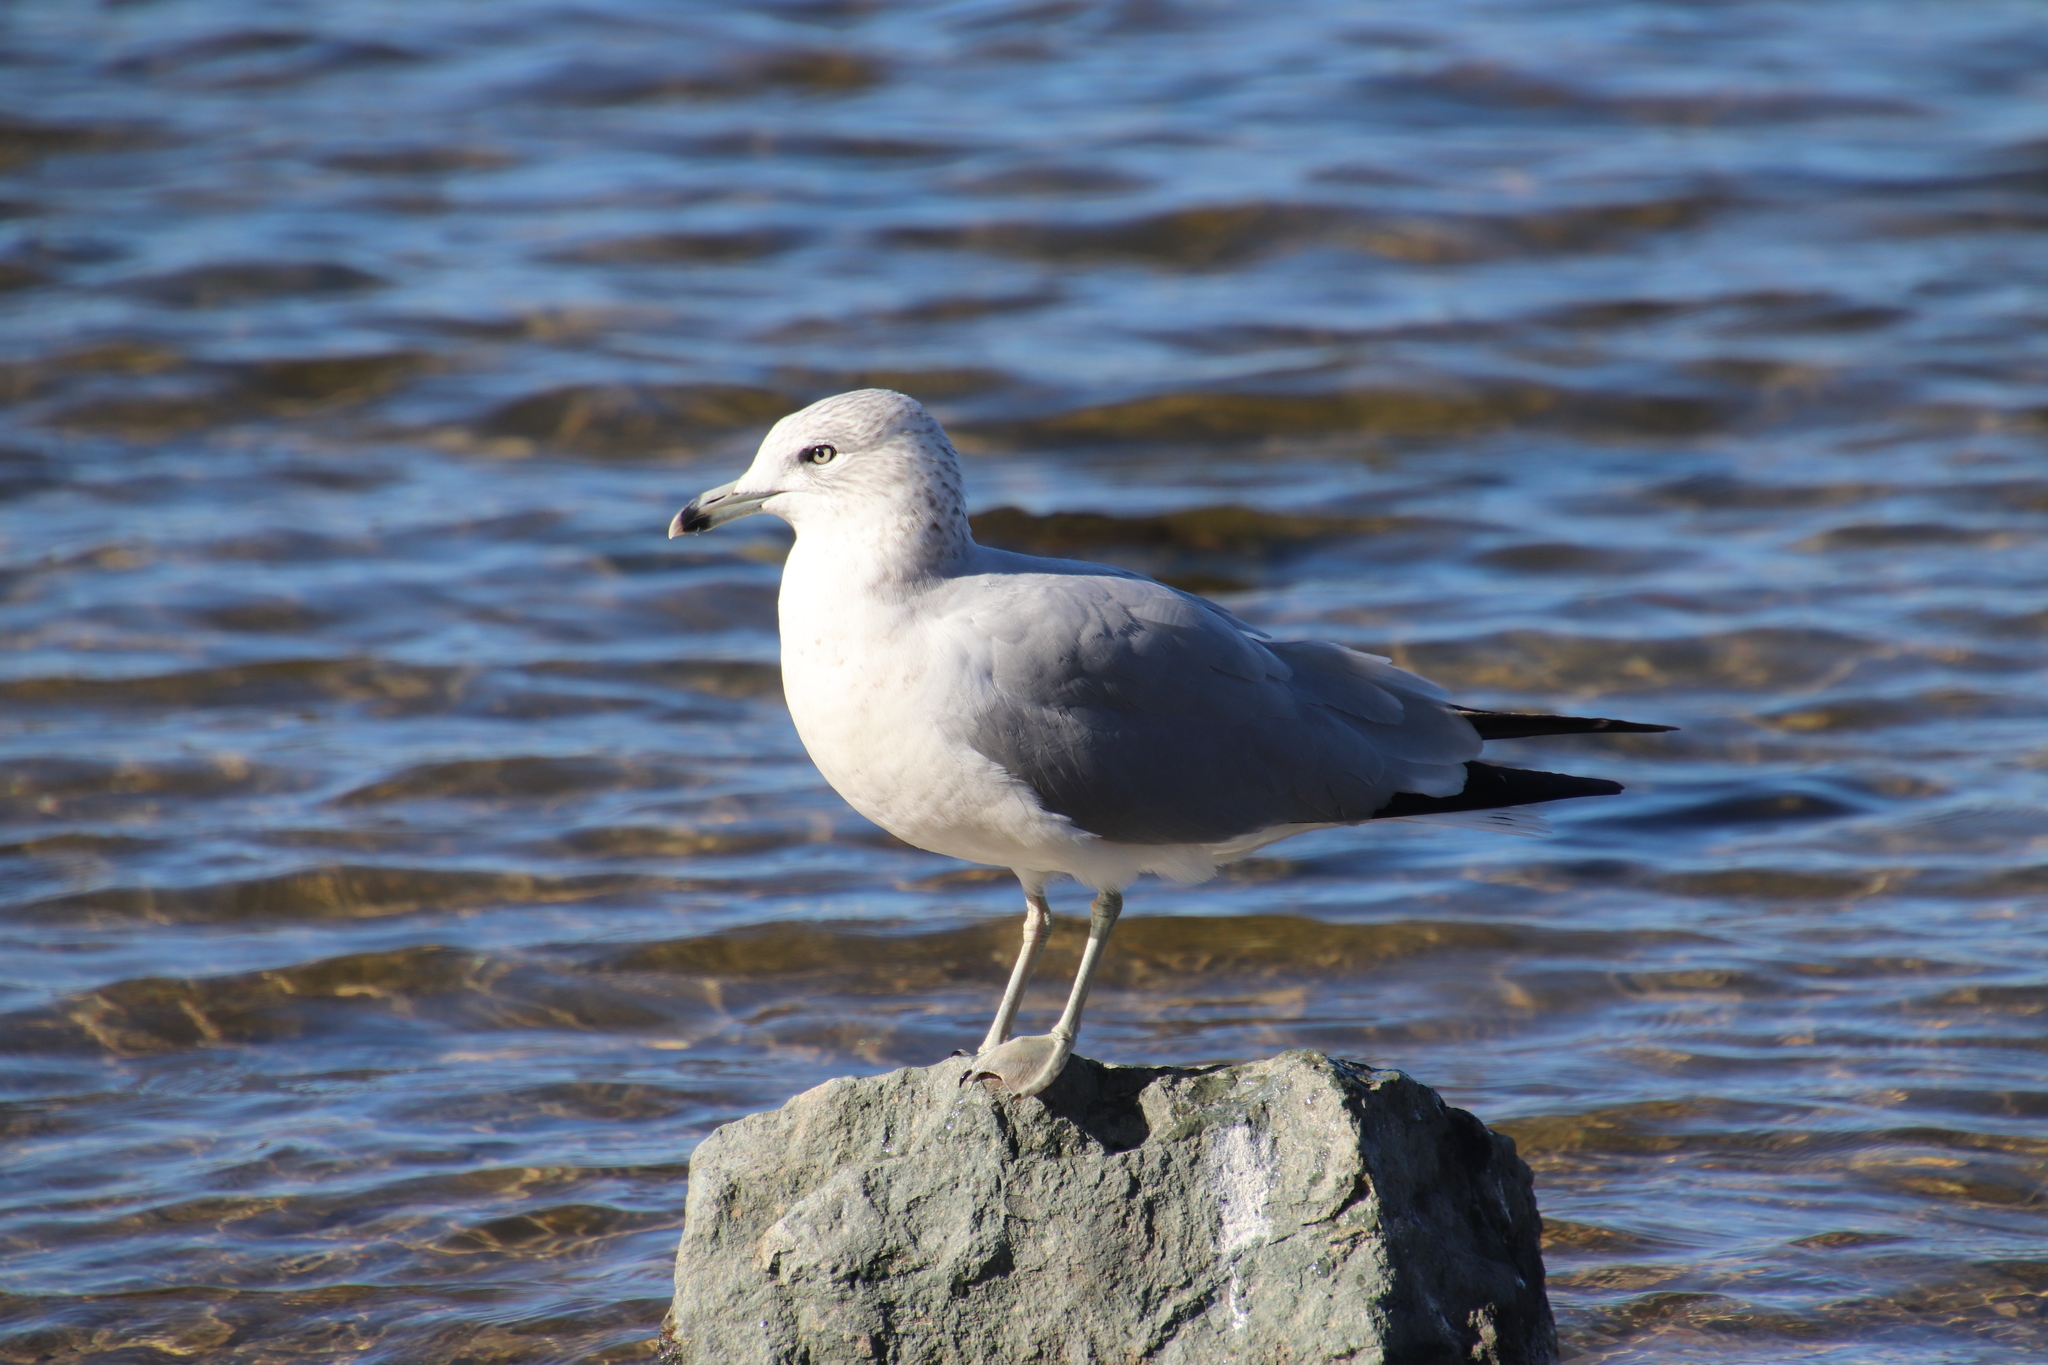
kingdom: Animalia
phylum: Chordata
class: Aves
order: Charadriiformes
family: Laridae
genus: Larus
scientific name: Larus delawarensis
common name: Ring-billed gull
